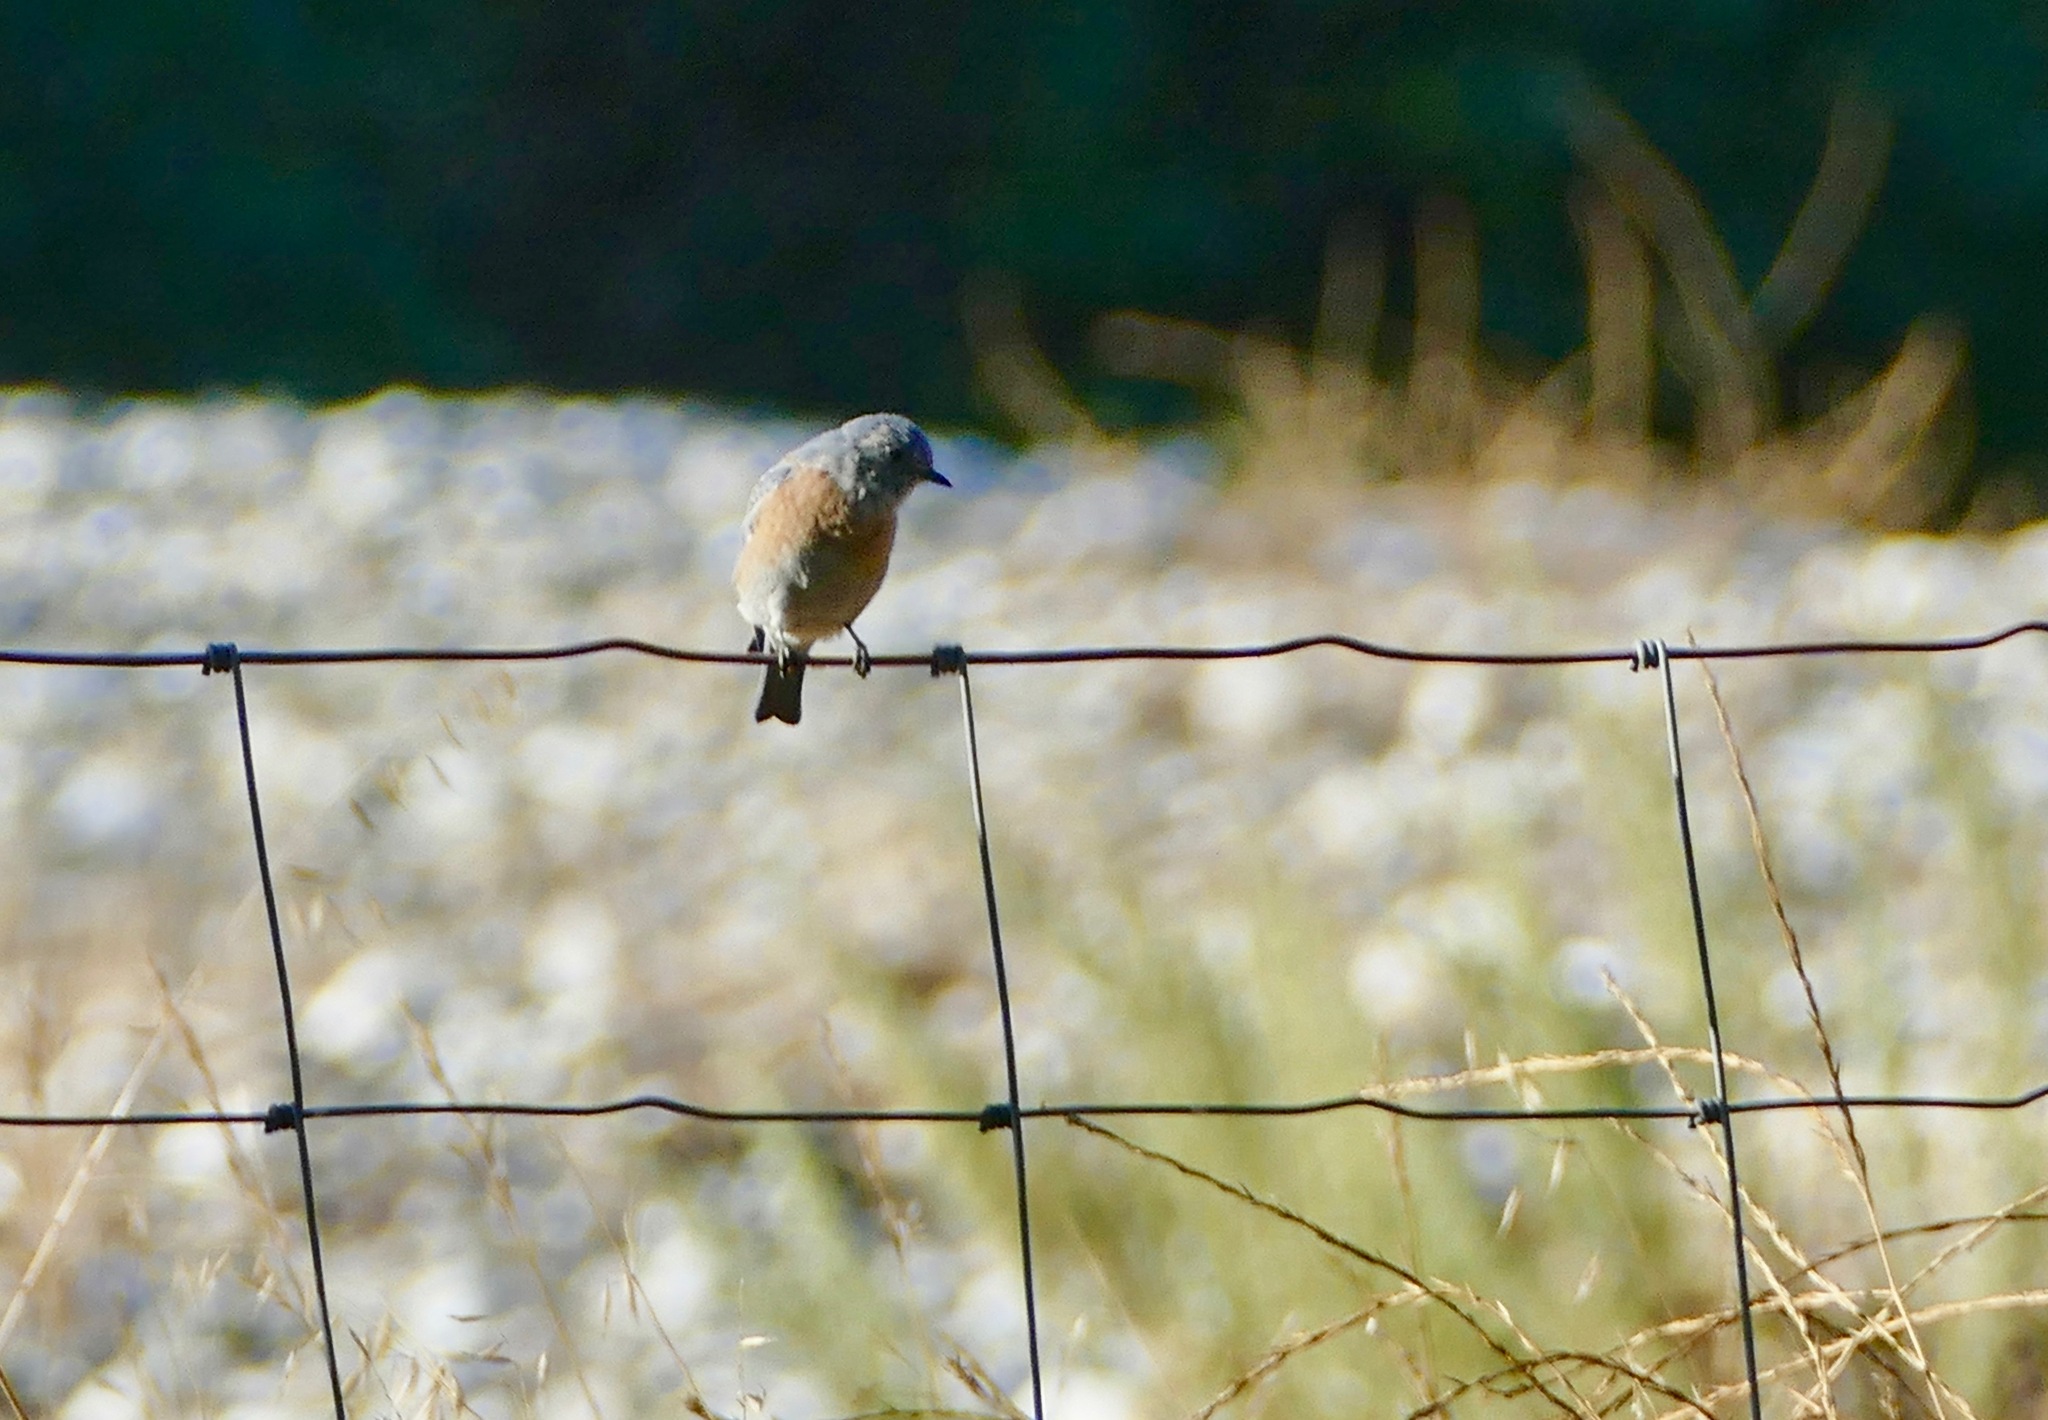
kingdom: Animalia
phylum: Chordata
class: Aves
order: Passeriformes
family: Turdidae
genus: Sialia
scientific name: Sialia mexicana
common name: Western bluebird
